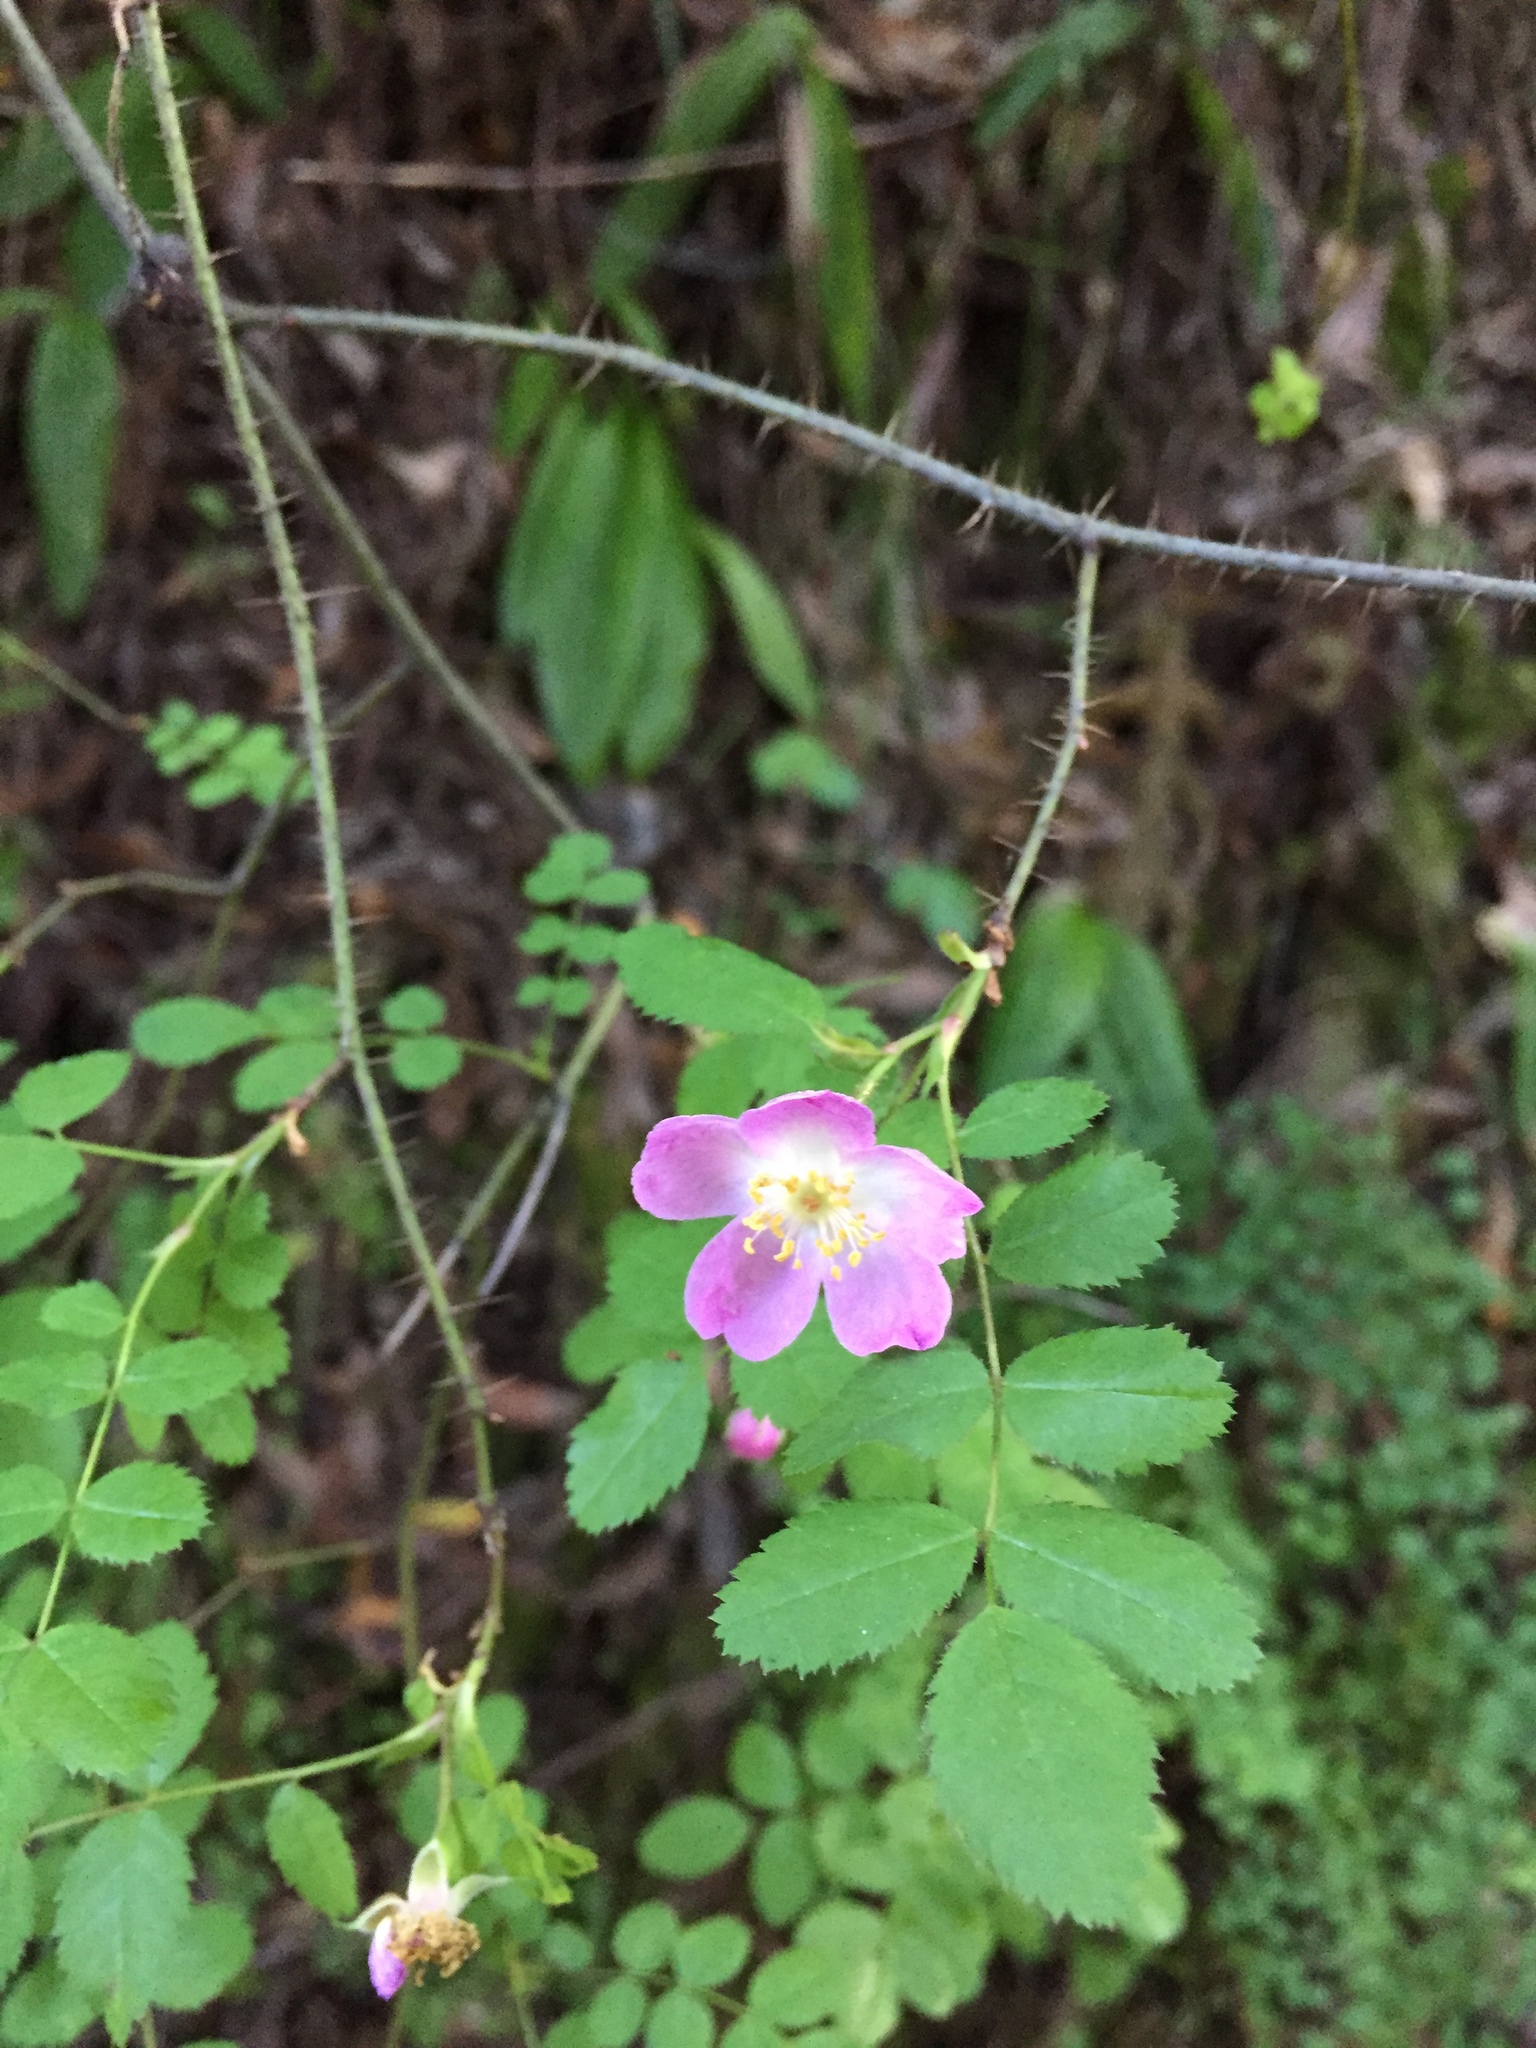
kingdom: Plantae
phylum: Tracheophyta
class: Magnoliopsida
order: Rosales
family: Rosaceae
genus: Rosa
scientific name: Rosa gymnocarpa
